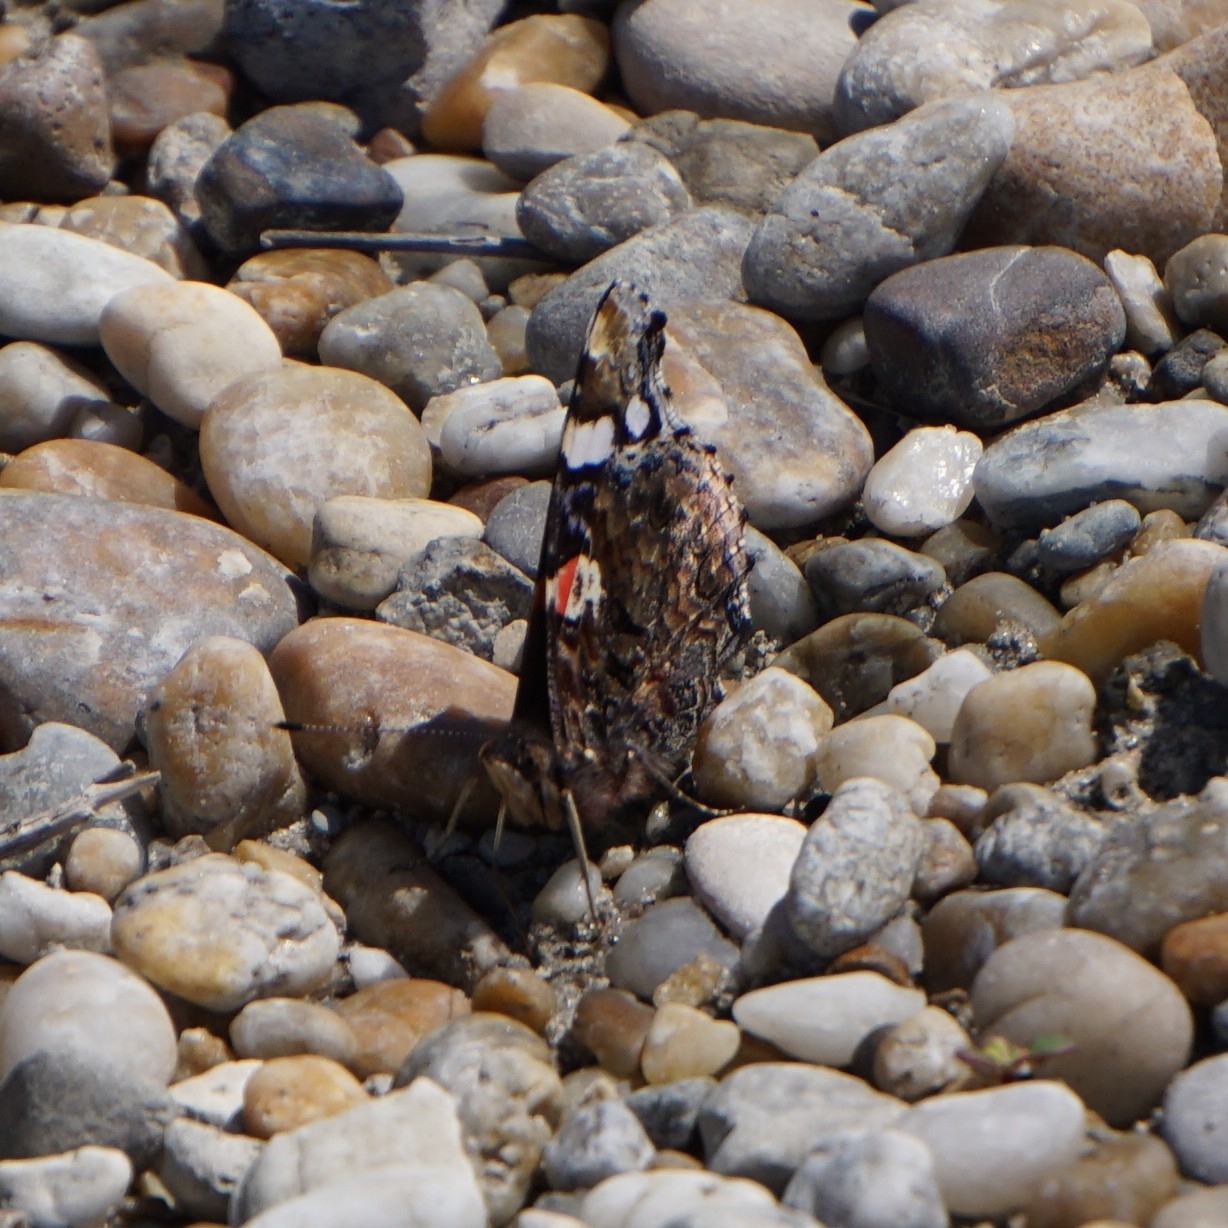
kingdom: Animalia
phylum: Arthropoda
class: Insecta
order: Lepidoptera
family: Nymphalidae
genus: Vanessa
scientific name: Vanessa atalanta
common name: Red admiral
